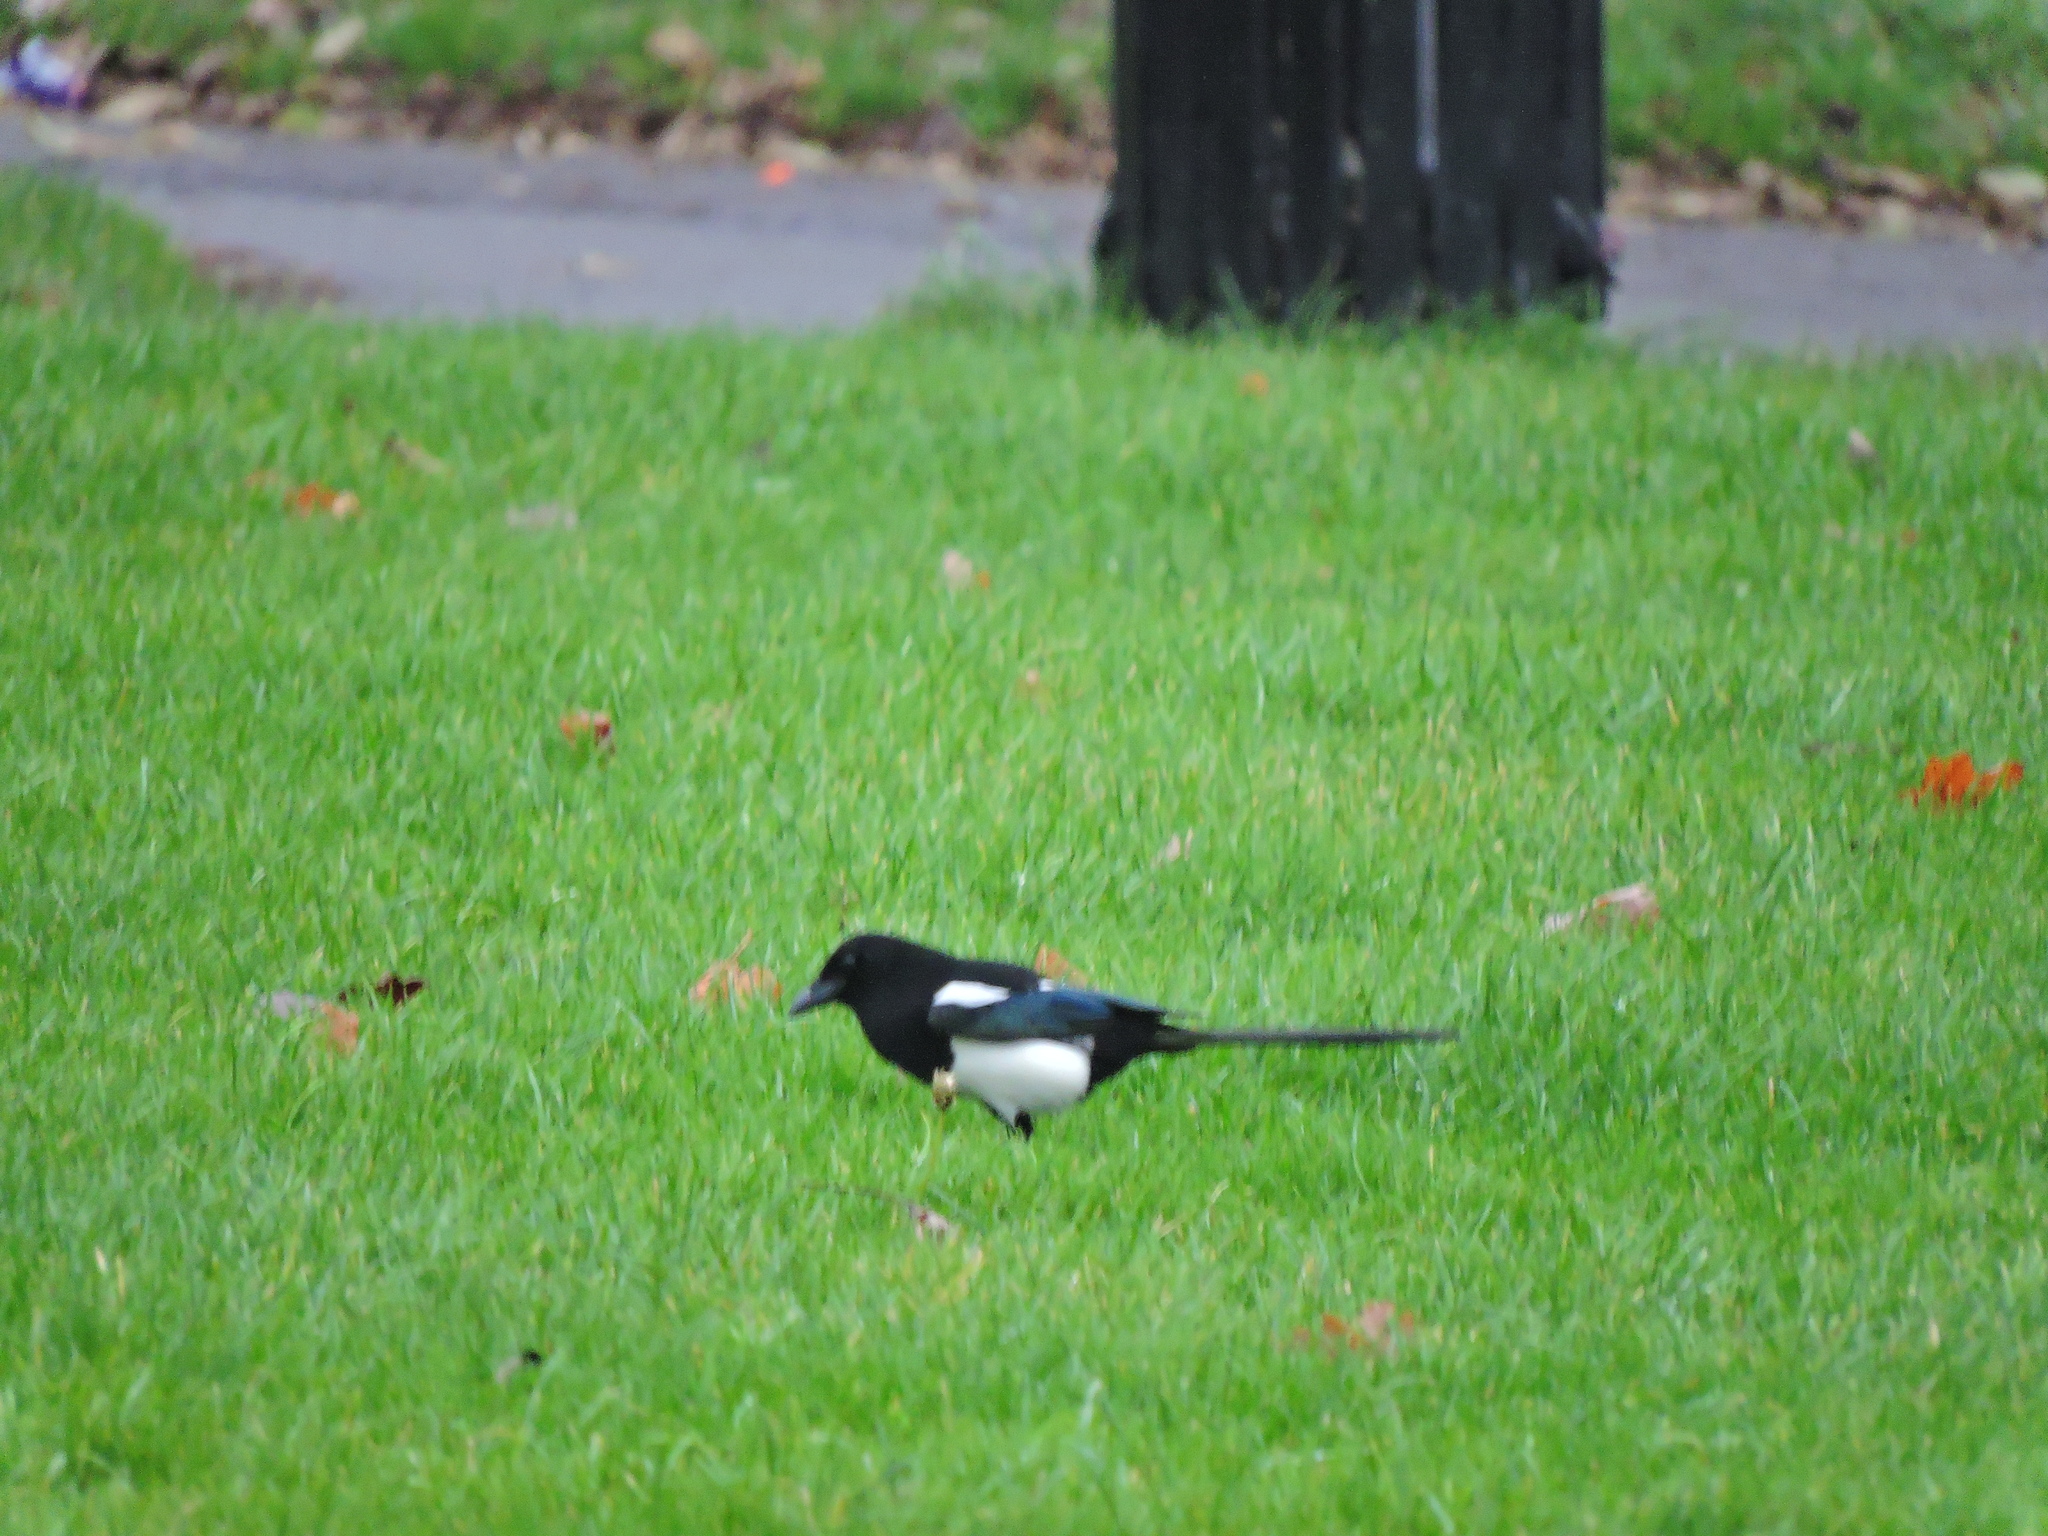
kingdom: Animalia
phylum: Chordata
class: Aves
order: Passeriformes
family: Corvidae
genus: Pica
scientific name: Pica pica
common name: Eurasian magpie
